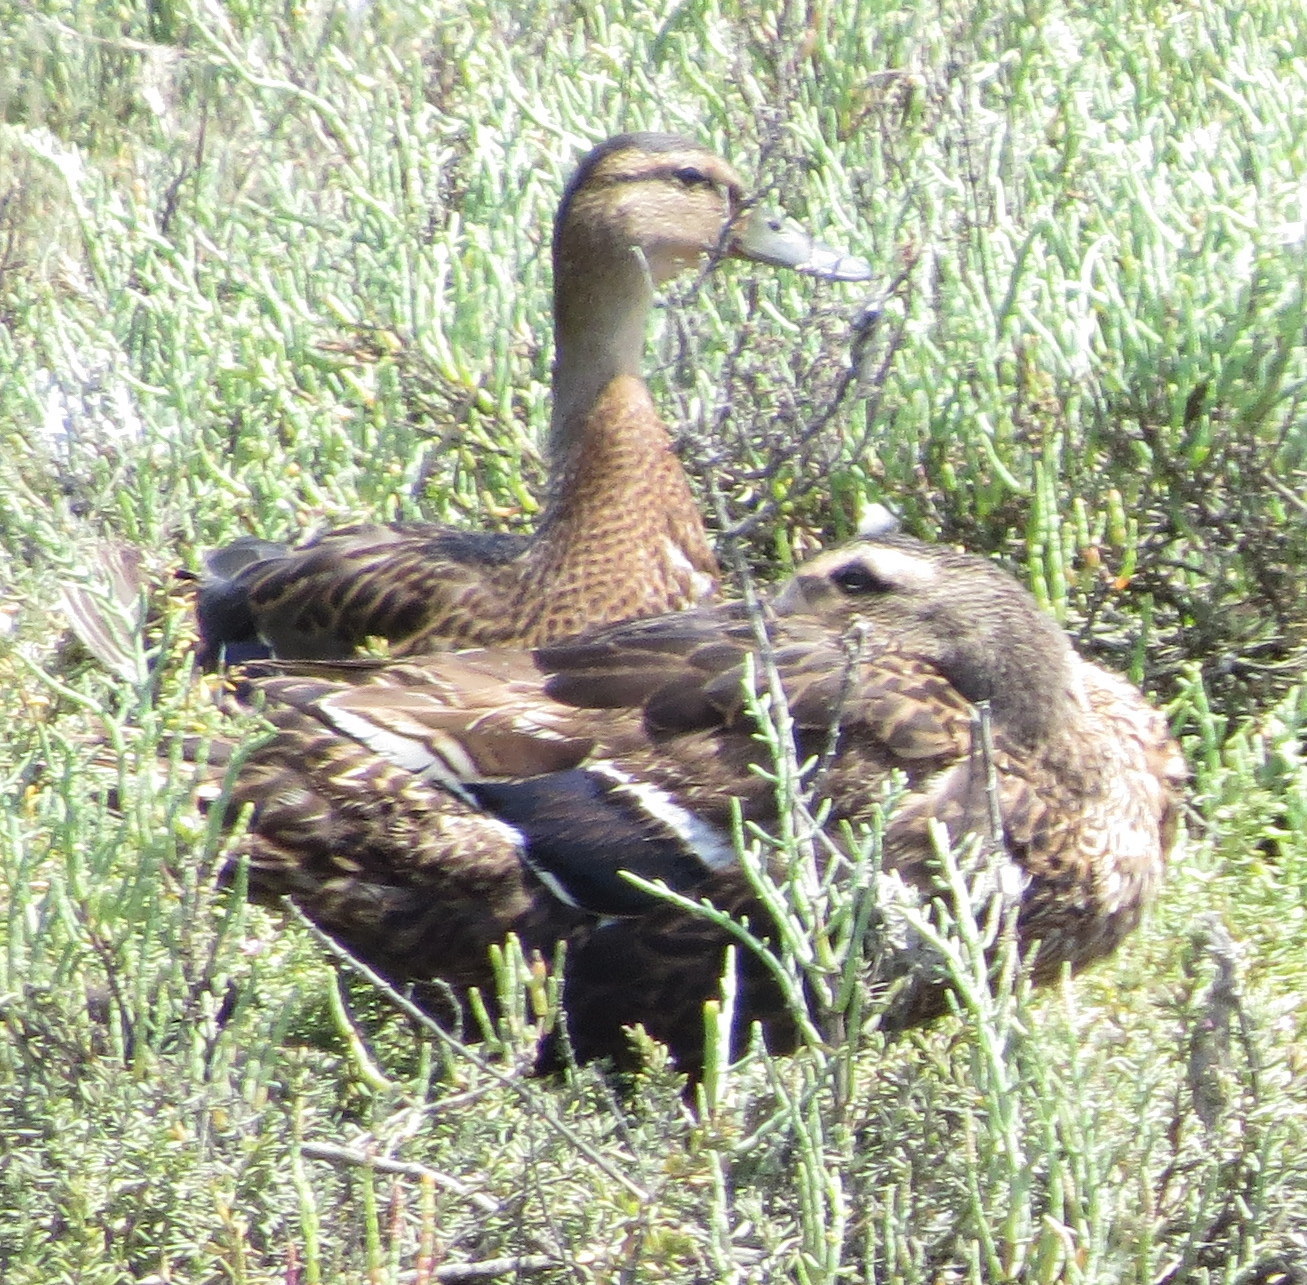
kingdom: Animalia
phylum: Chordata
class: Aves
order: Anseriformes
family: Anatidae
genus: Anas
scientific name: Anas platyrhynchos
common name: Mallard
